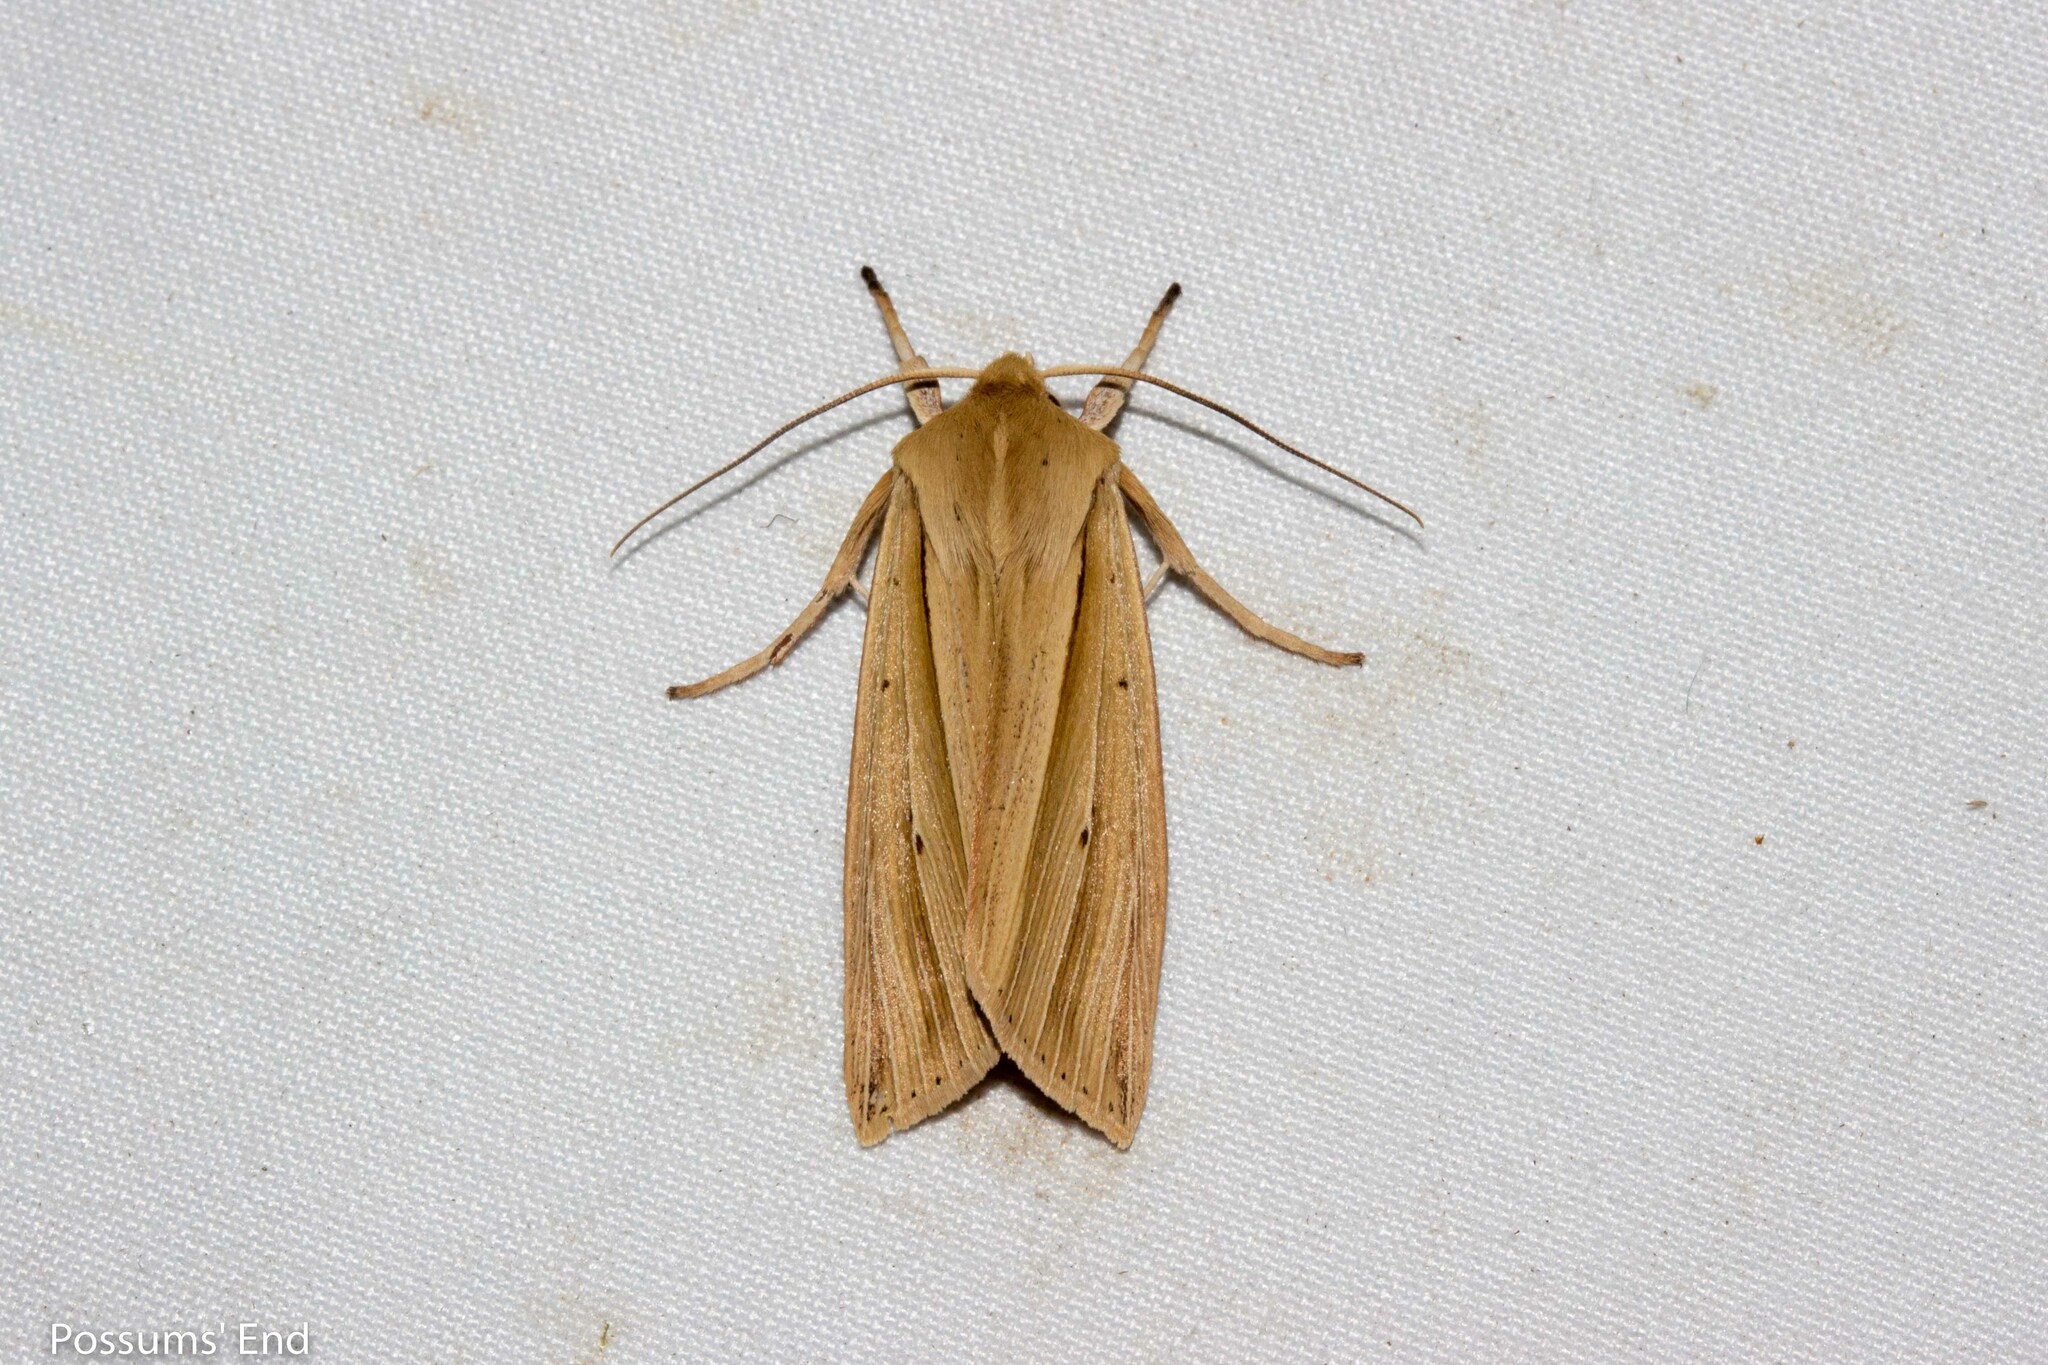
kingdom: Animalia
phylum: Arthropoda
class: Insecta
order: Lepidoptera
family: Noctuidae
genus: Ichneutica
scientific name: Ichneutica sulcana
